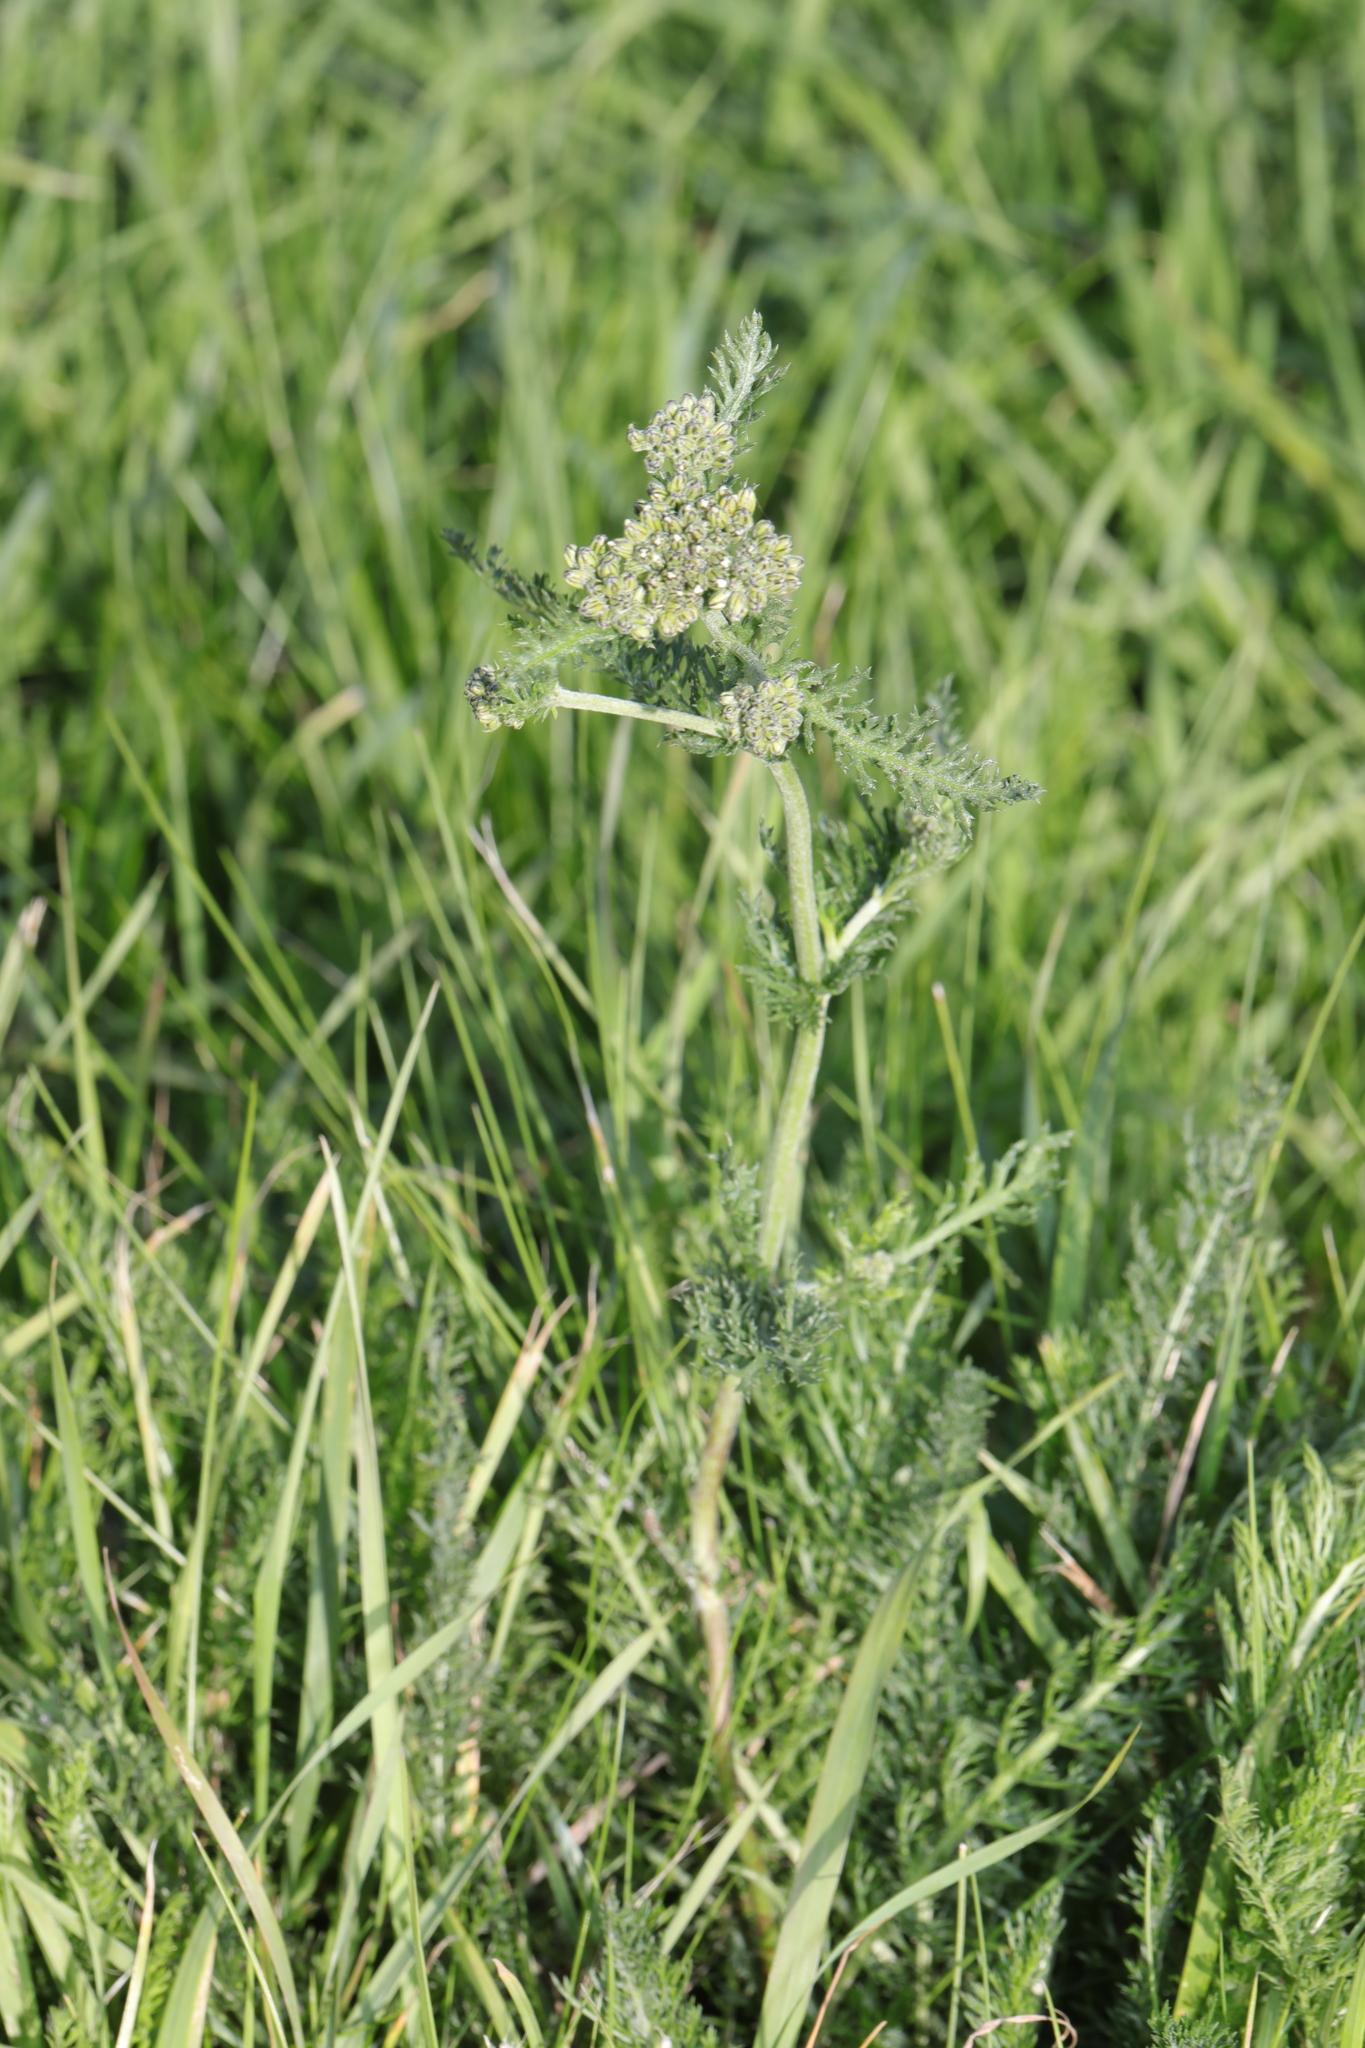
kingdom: Plantae
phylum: Tracheophyta
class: Magnoliopsida
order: Asterales
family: Asteraceae
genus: Achillea
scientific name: Achillea millefolium
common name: Yarrow
